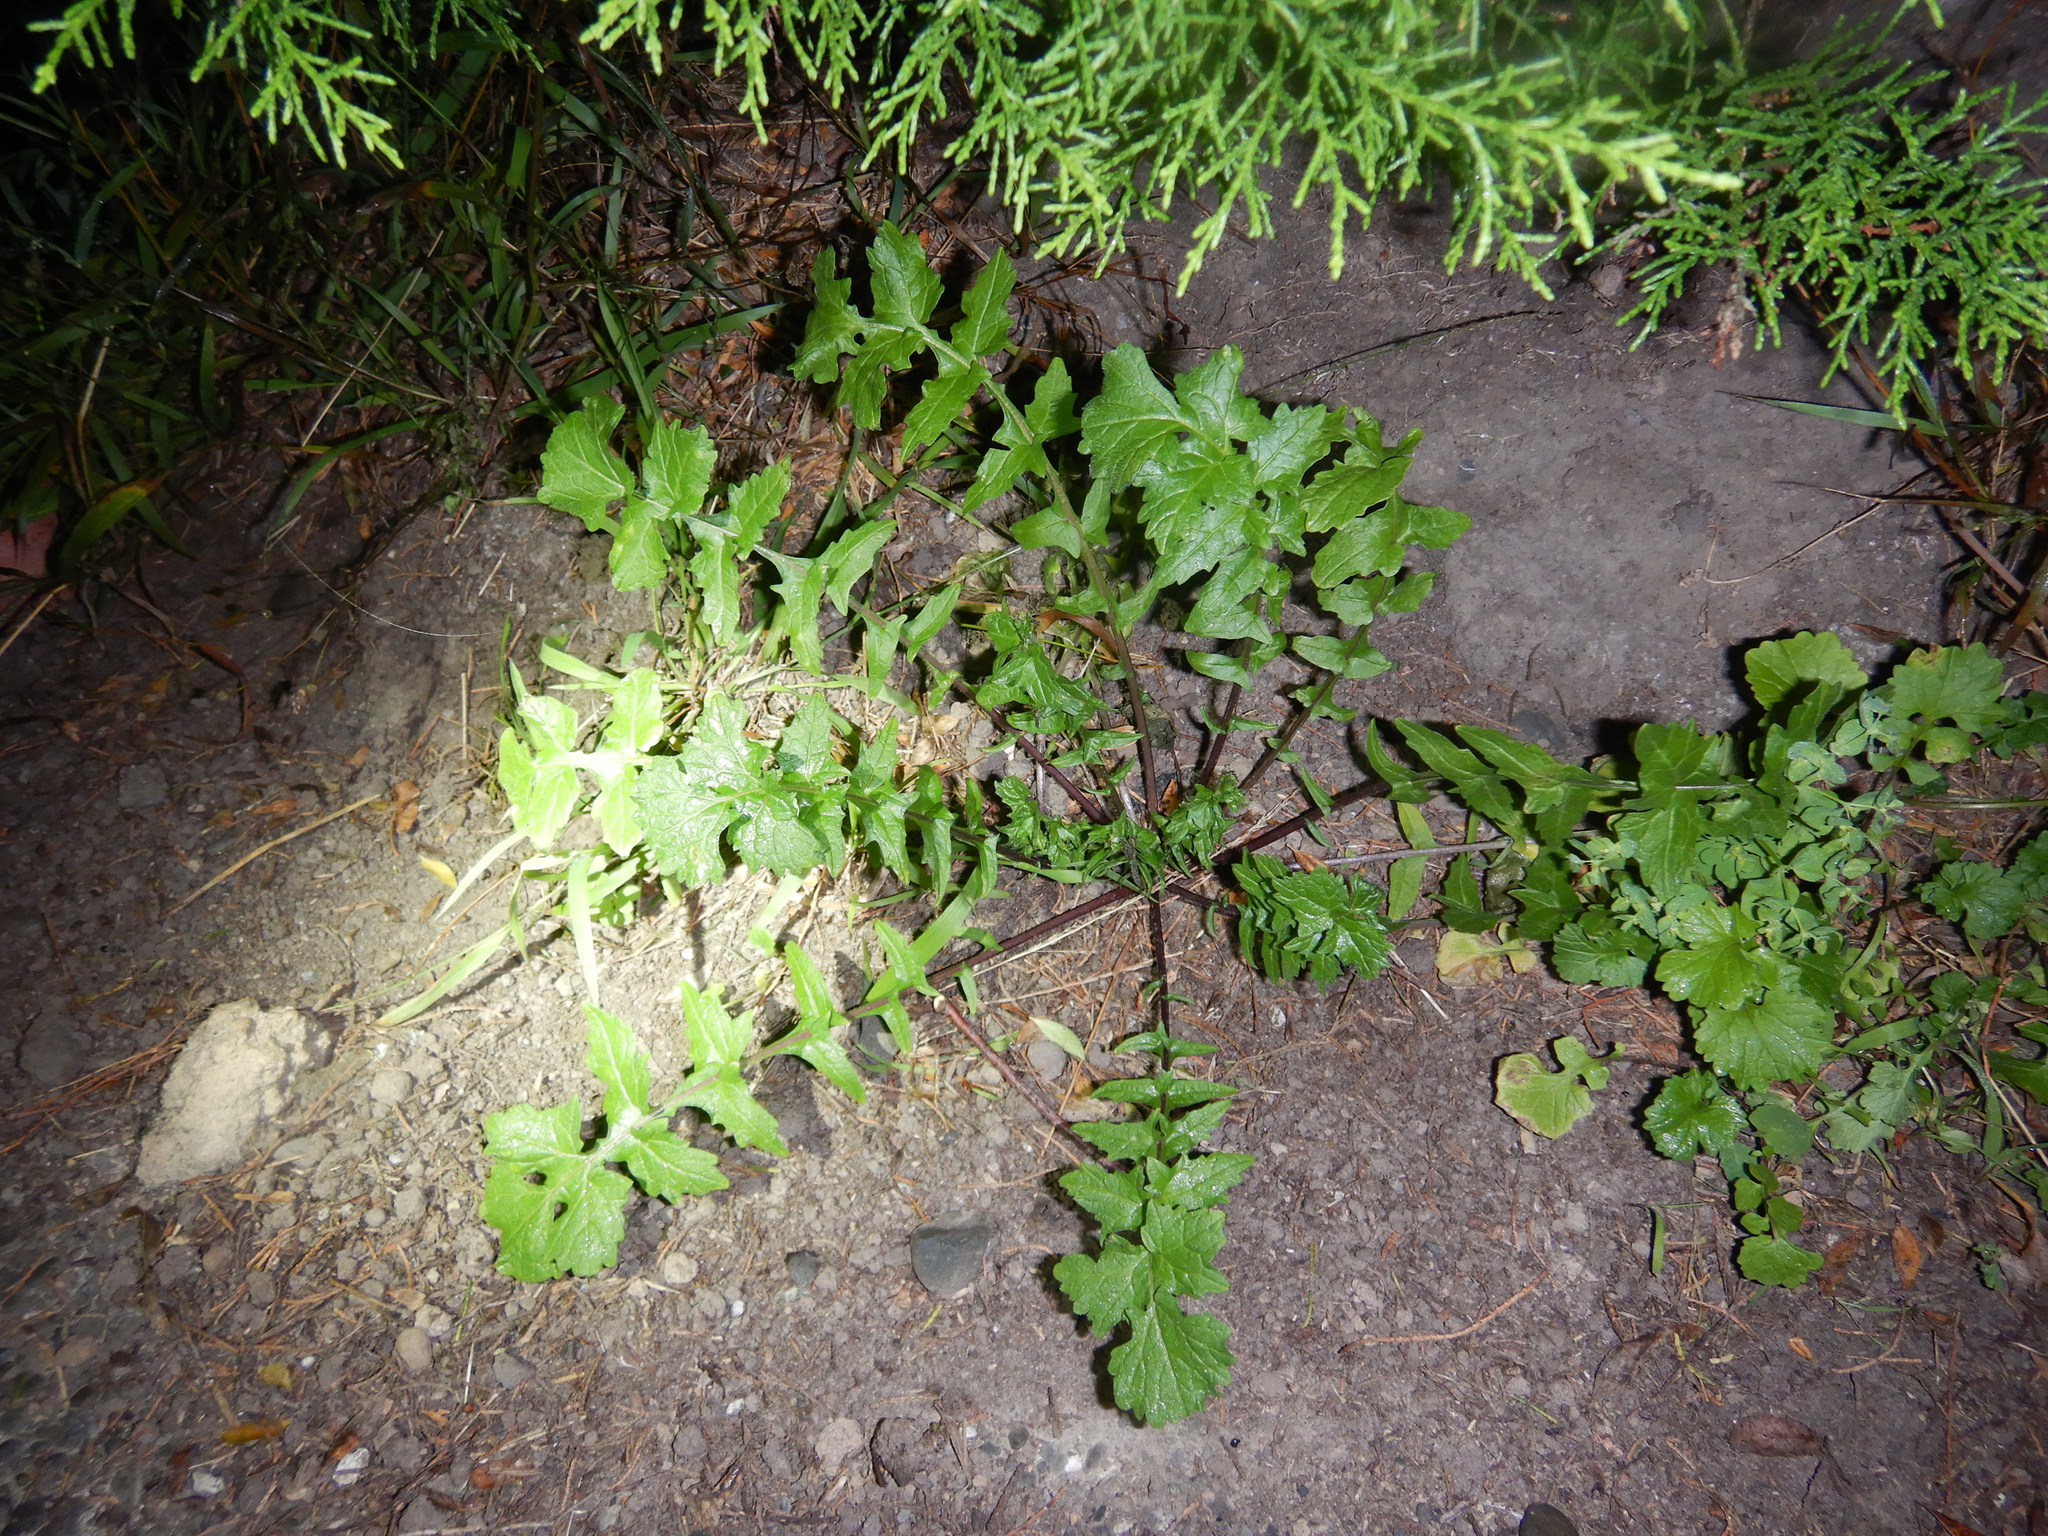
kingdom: Plantae
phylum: Tracheophyta
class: Magnoliopsida
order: Brassicales
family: Brassicaceae
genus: Sisymbrium
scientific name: Sisymbrium officinale
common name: Hedge mustard
